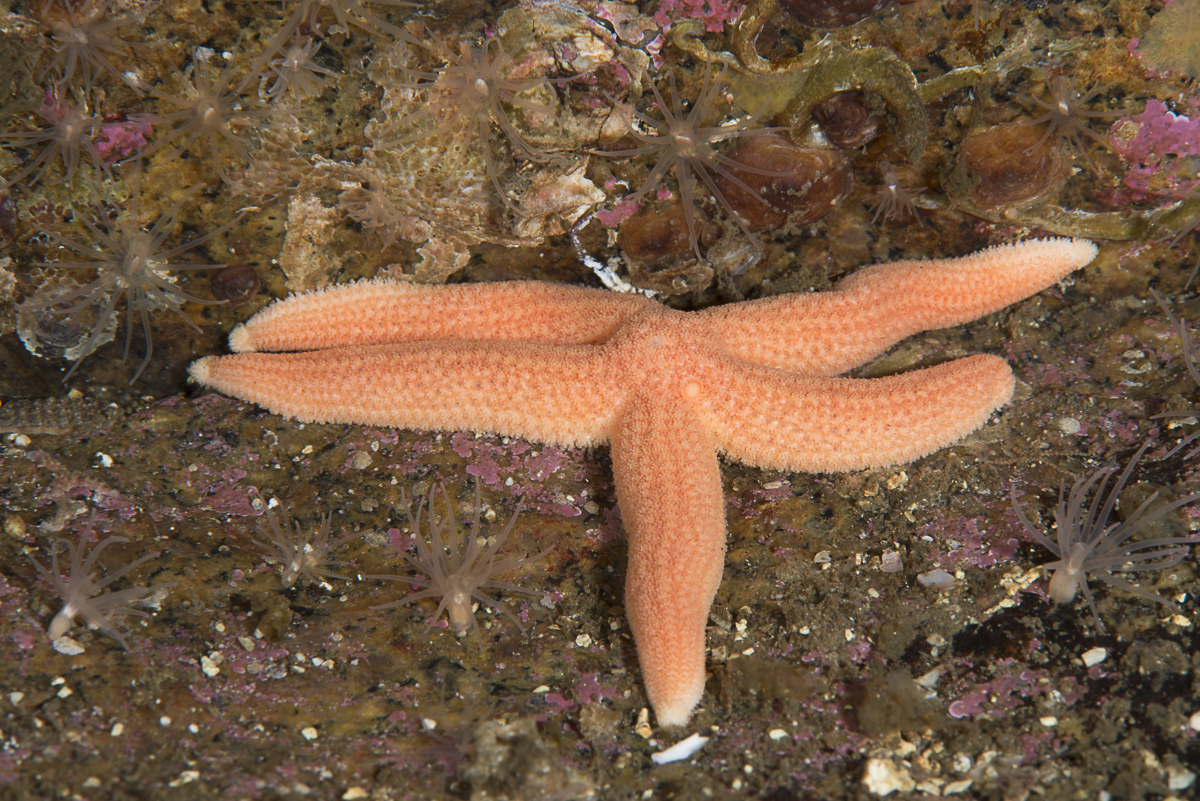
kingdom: Animalia
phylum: Echinodermata
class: Asteroidea
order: Forcipulatida
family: Stichasteridae
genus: Stichastrella
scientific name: Stichastrella rosea
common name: Rosy starfish
